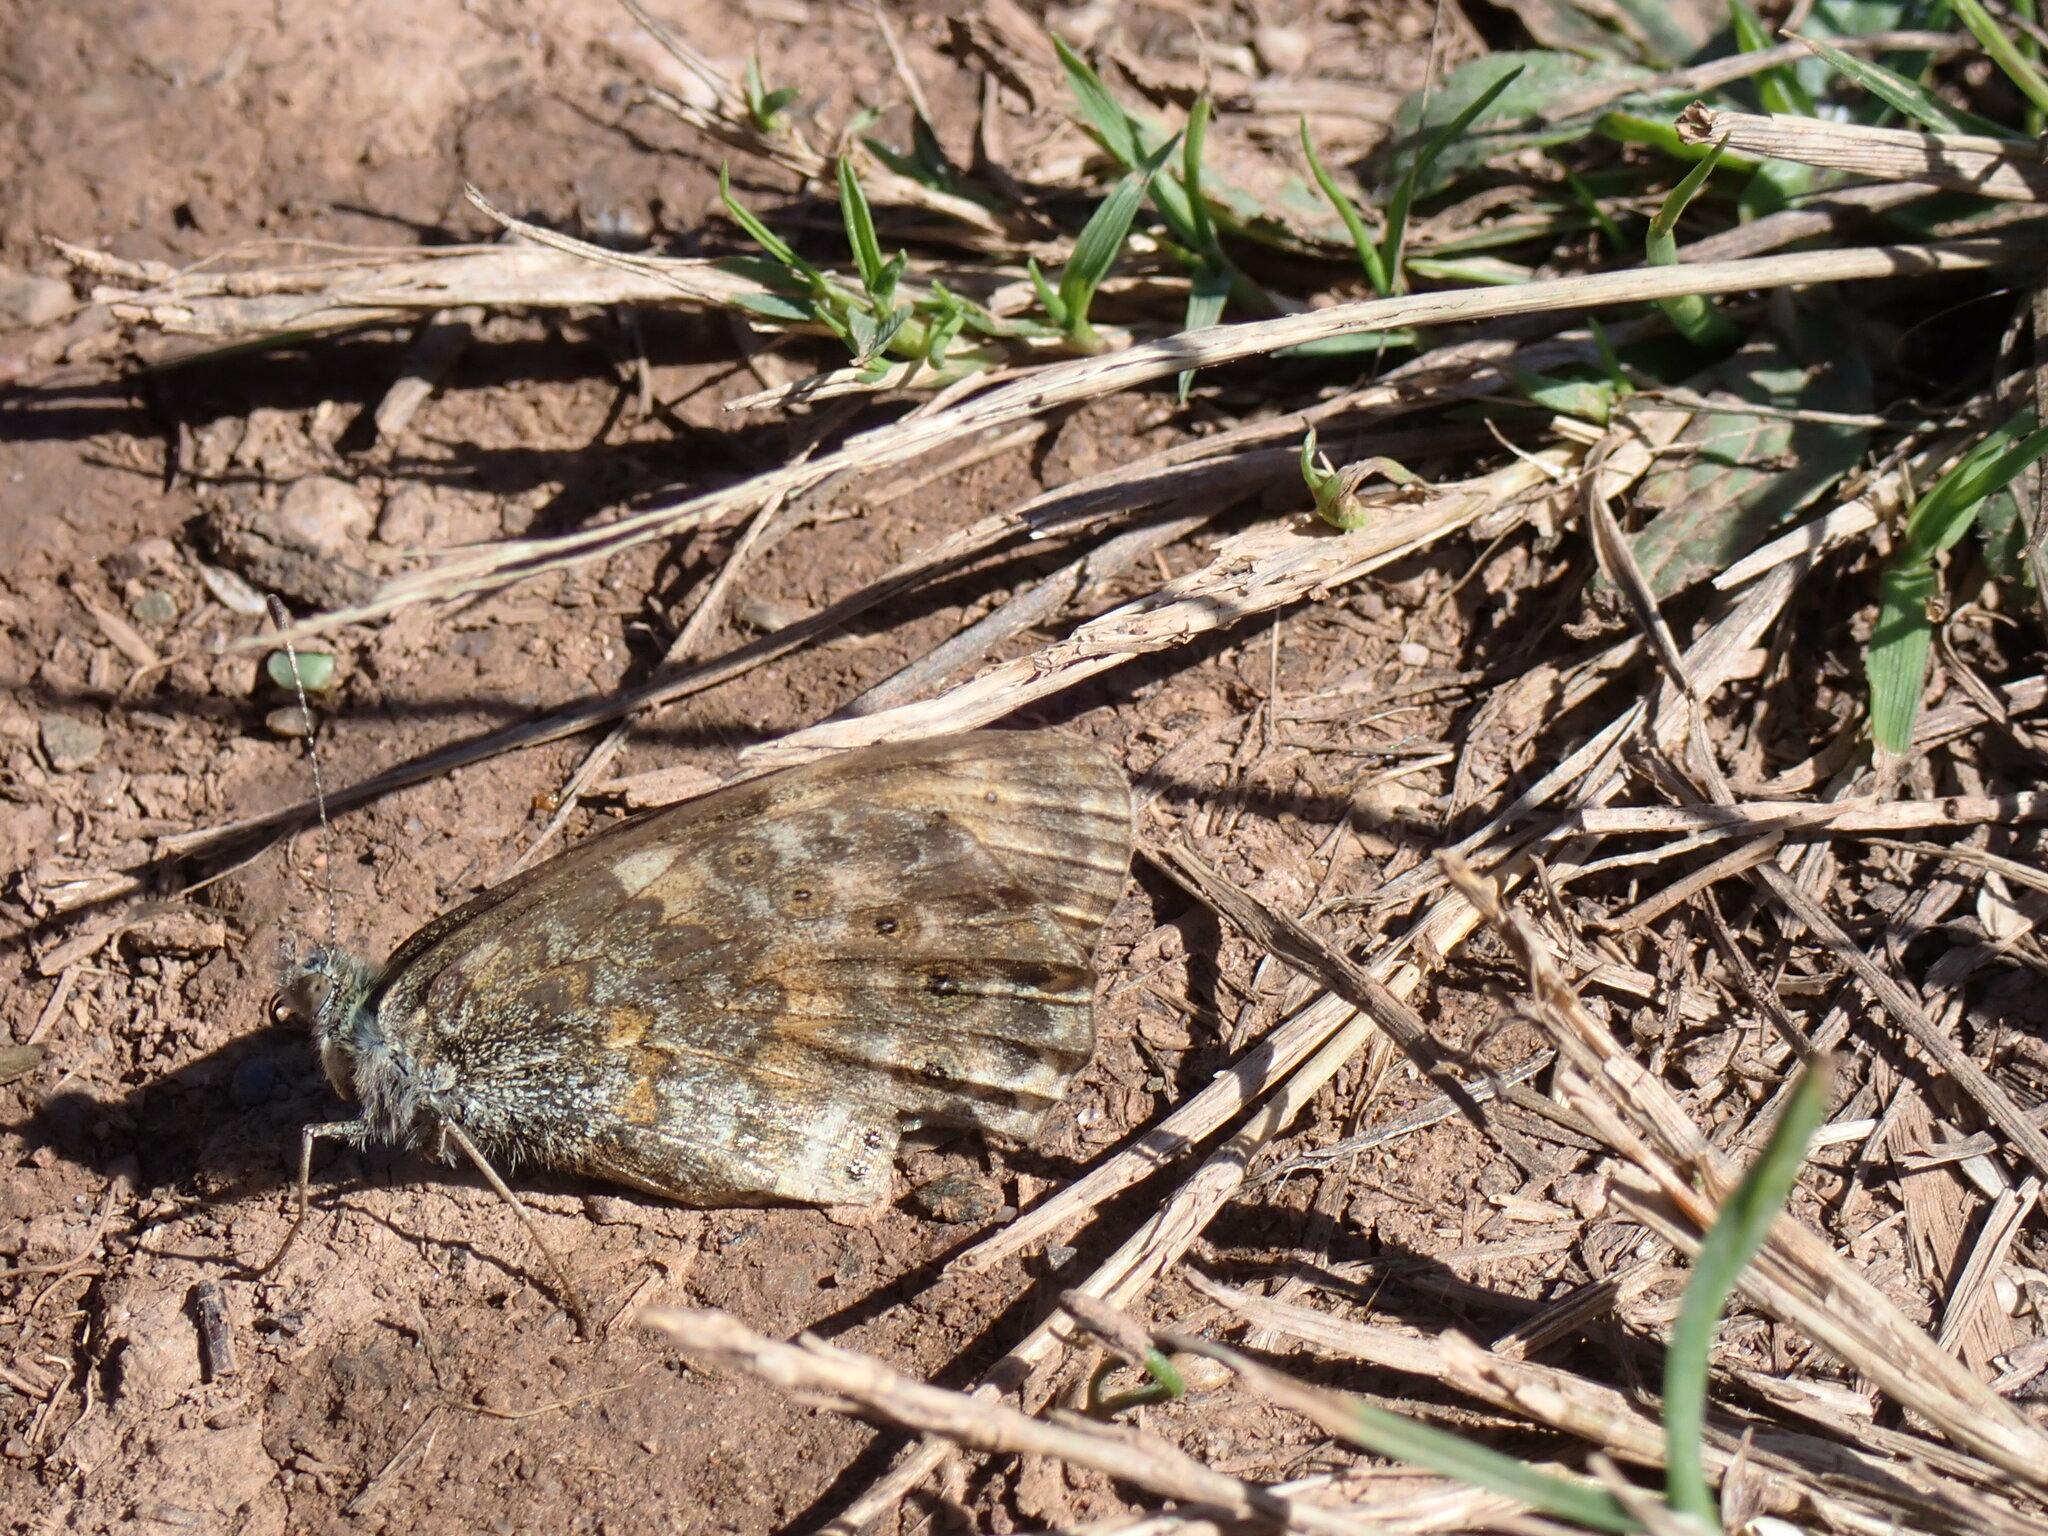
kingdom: Animalia
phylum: Arthropoda
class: Insecta
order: Lepidoptera
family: Nymphalidae
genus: Pararge
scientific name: Pararge Lasiommata megera
